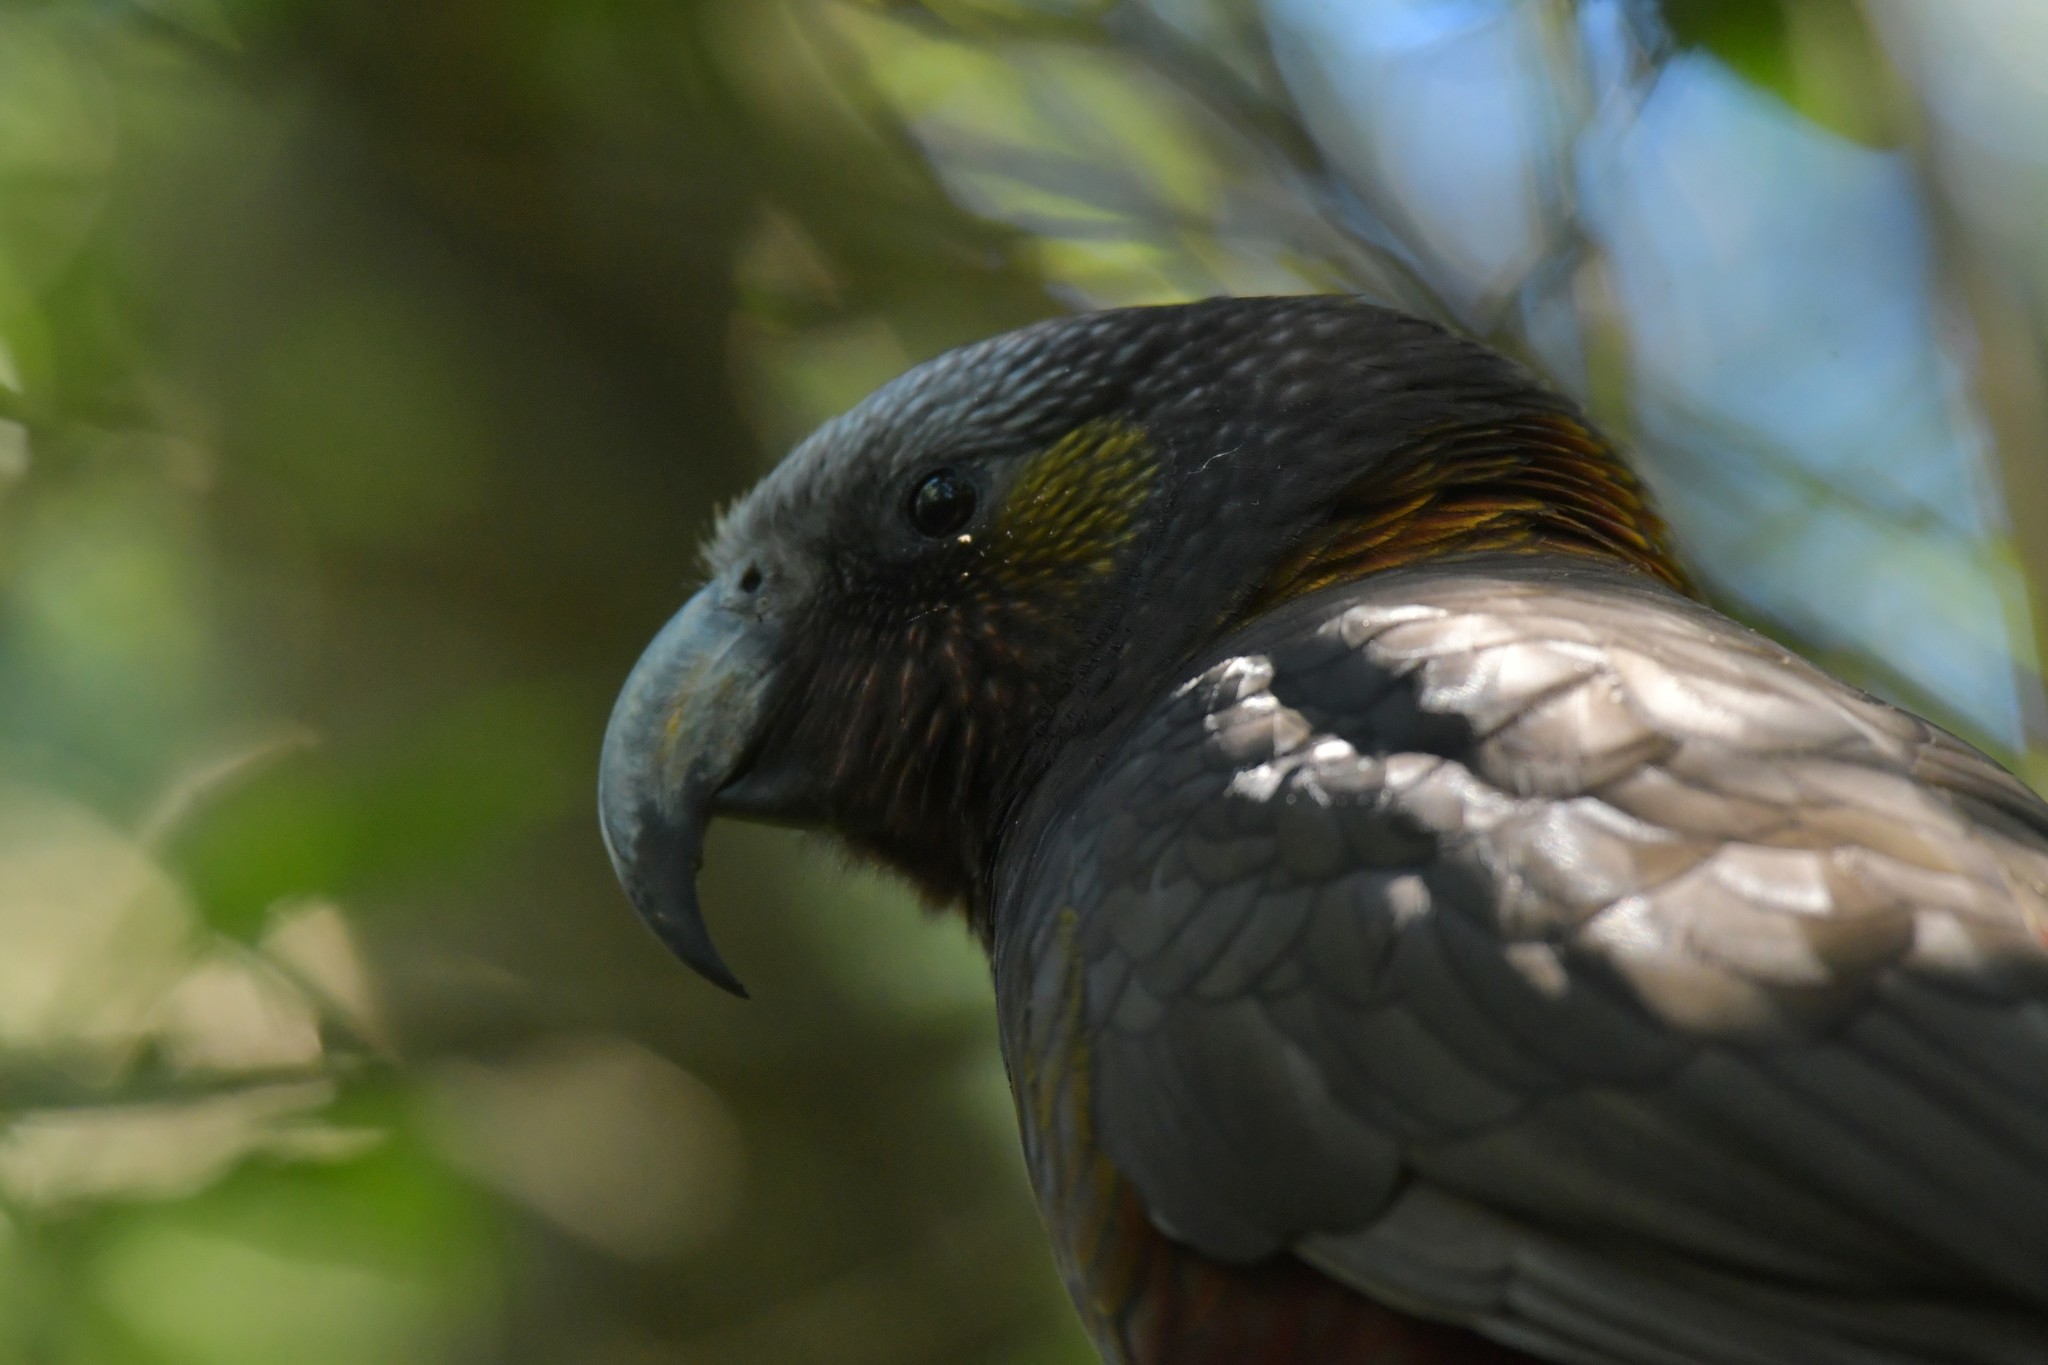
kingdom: Animalia
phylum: Chordata
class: Aves
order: Psittaciformes
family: Psittacidae
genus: Nestor
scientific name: Nestor meridionalis
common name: New zealand kaka
